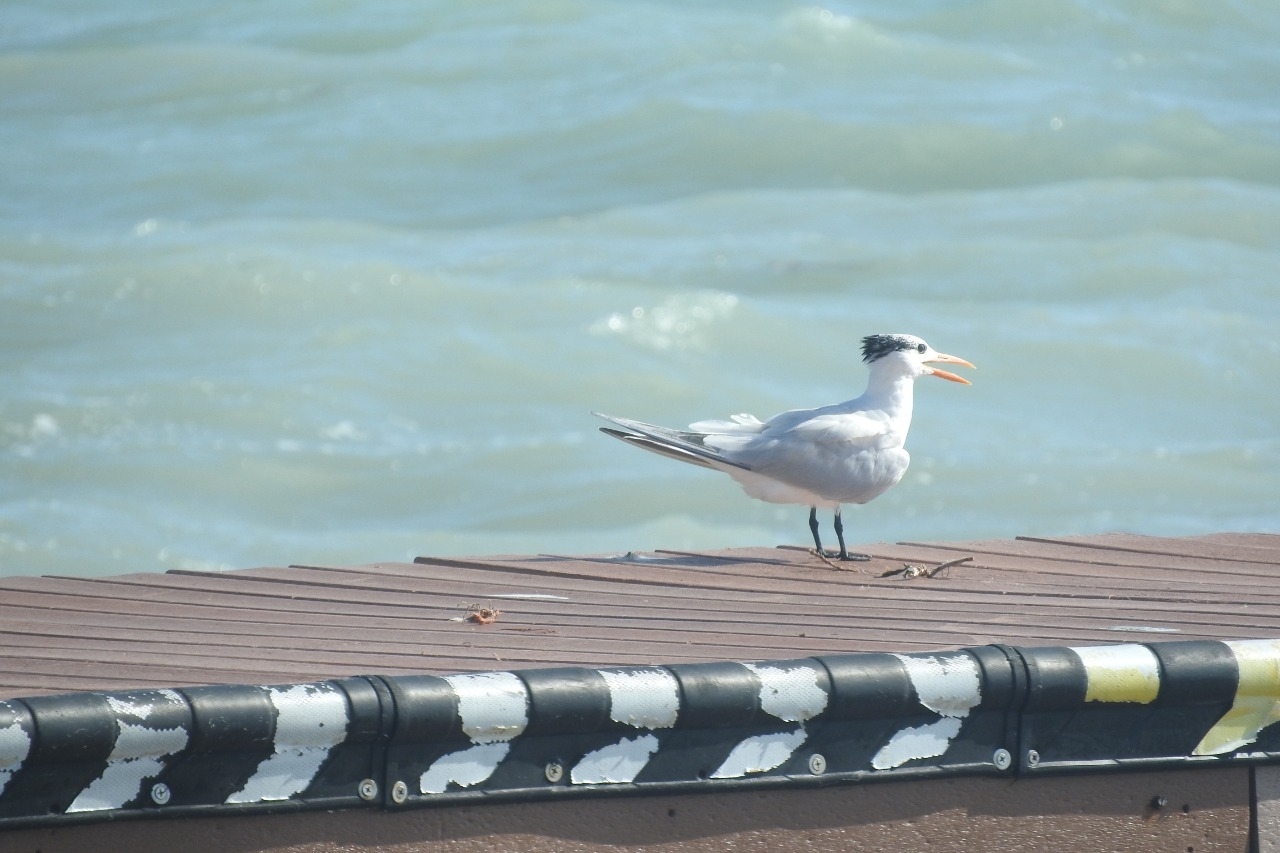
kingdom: Animalia
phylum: Chordata
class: Aves
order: Charadriiformes
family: Laridae
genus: Thalasseus
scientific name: Thalasseus maximus
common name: Royal tern
